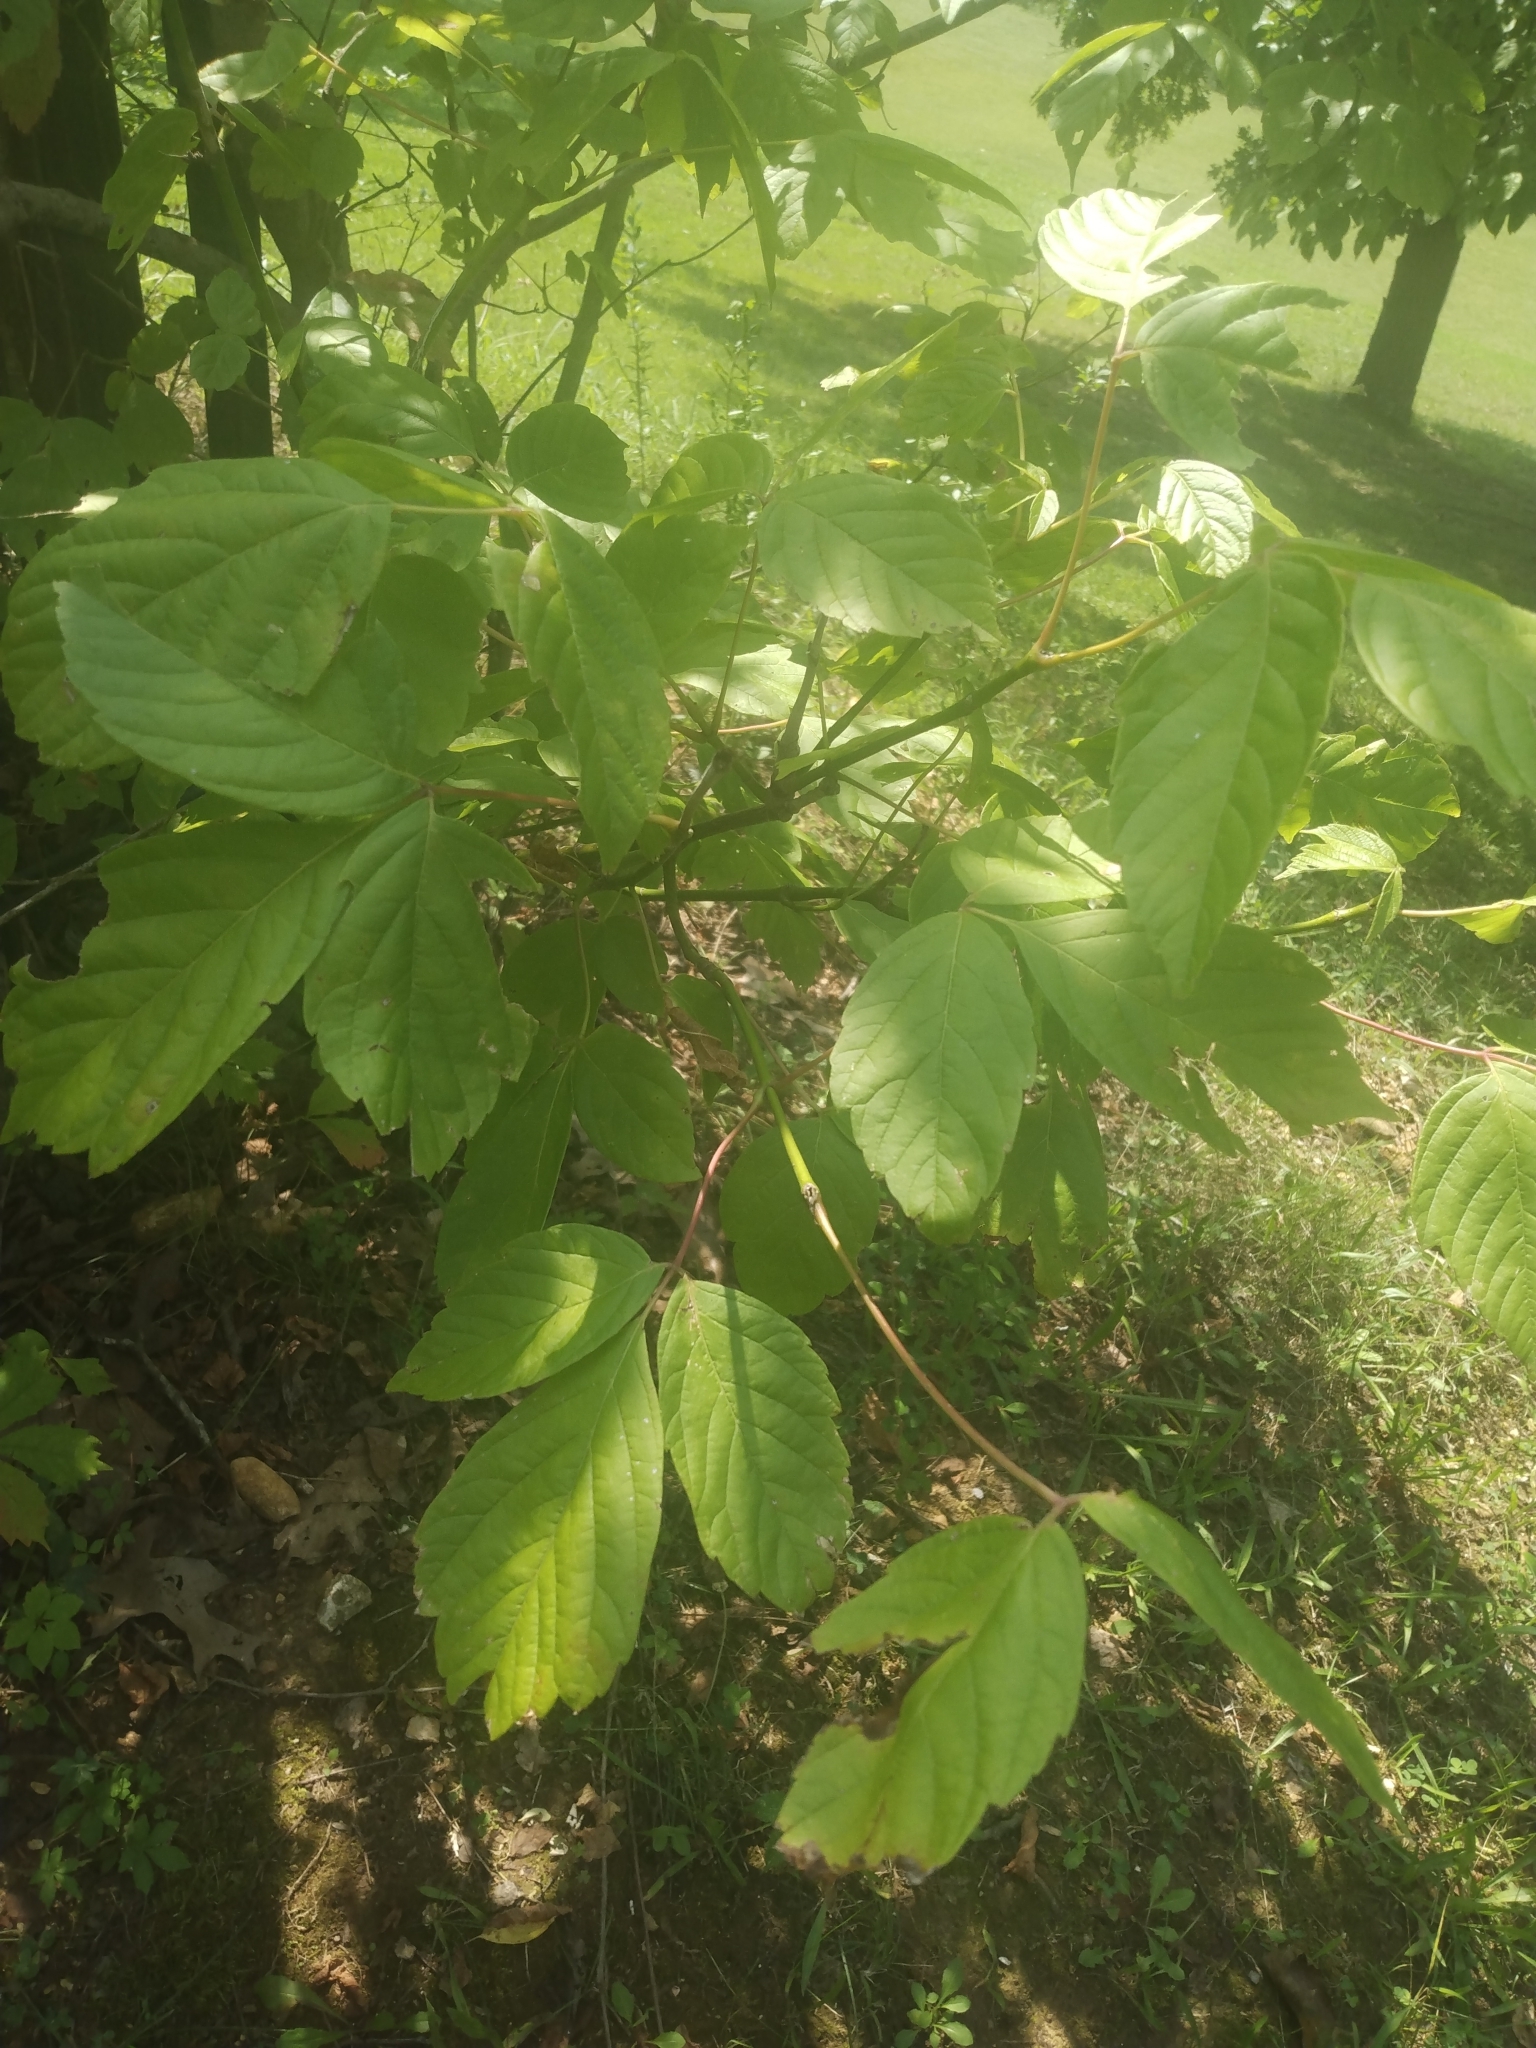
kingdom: Plantae
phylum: Tracheophyta
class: Magnoliopsida
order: Sapindales
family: Sapindaceae
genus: Acer
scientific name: Acer negundo
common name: Ashleaf maple
